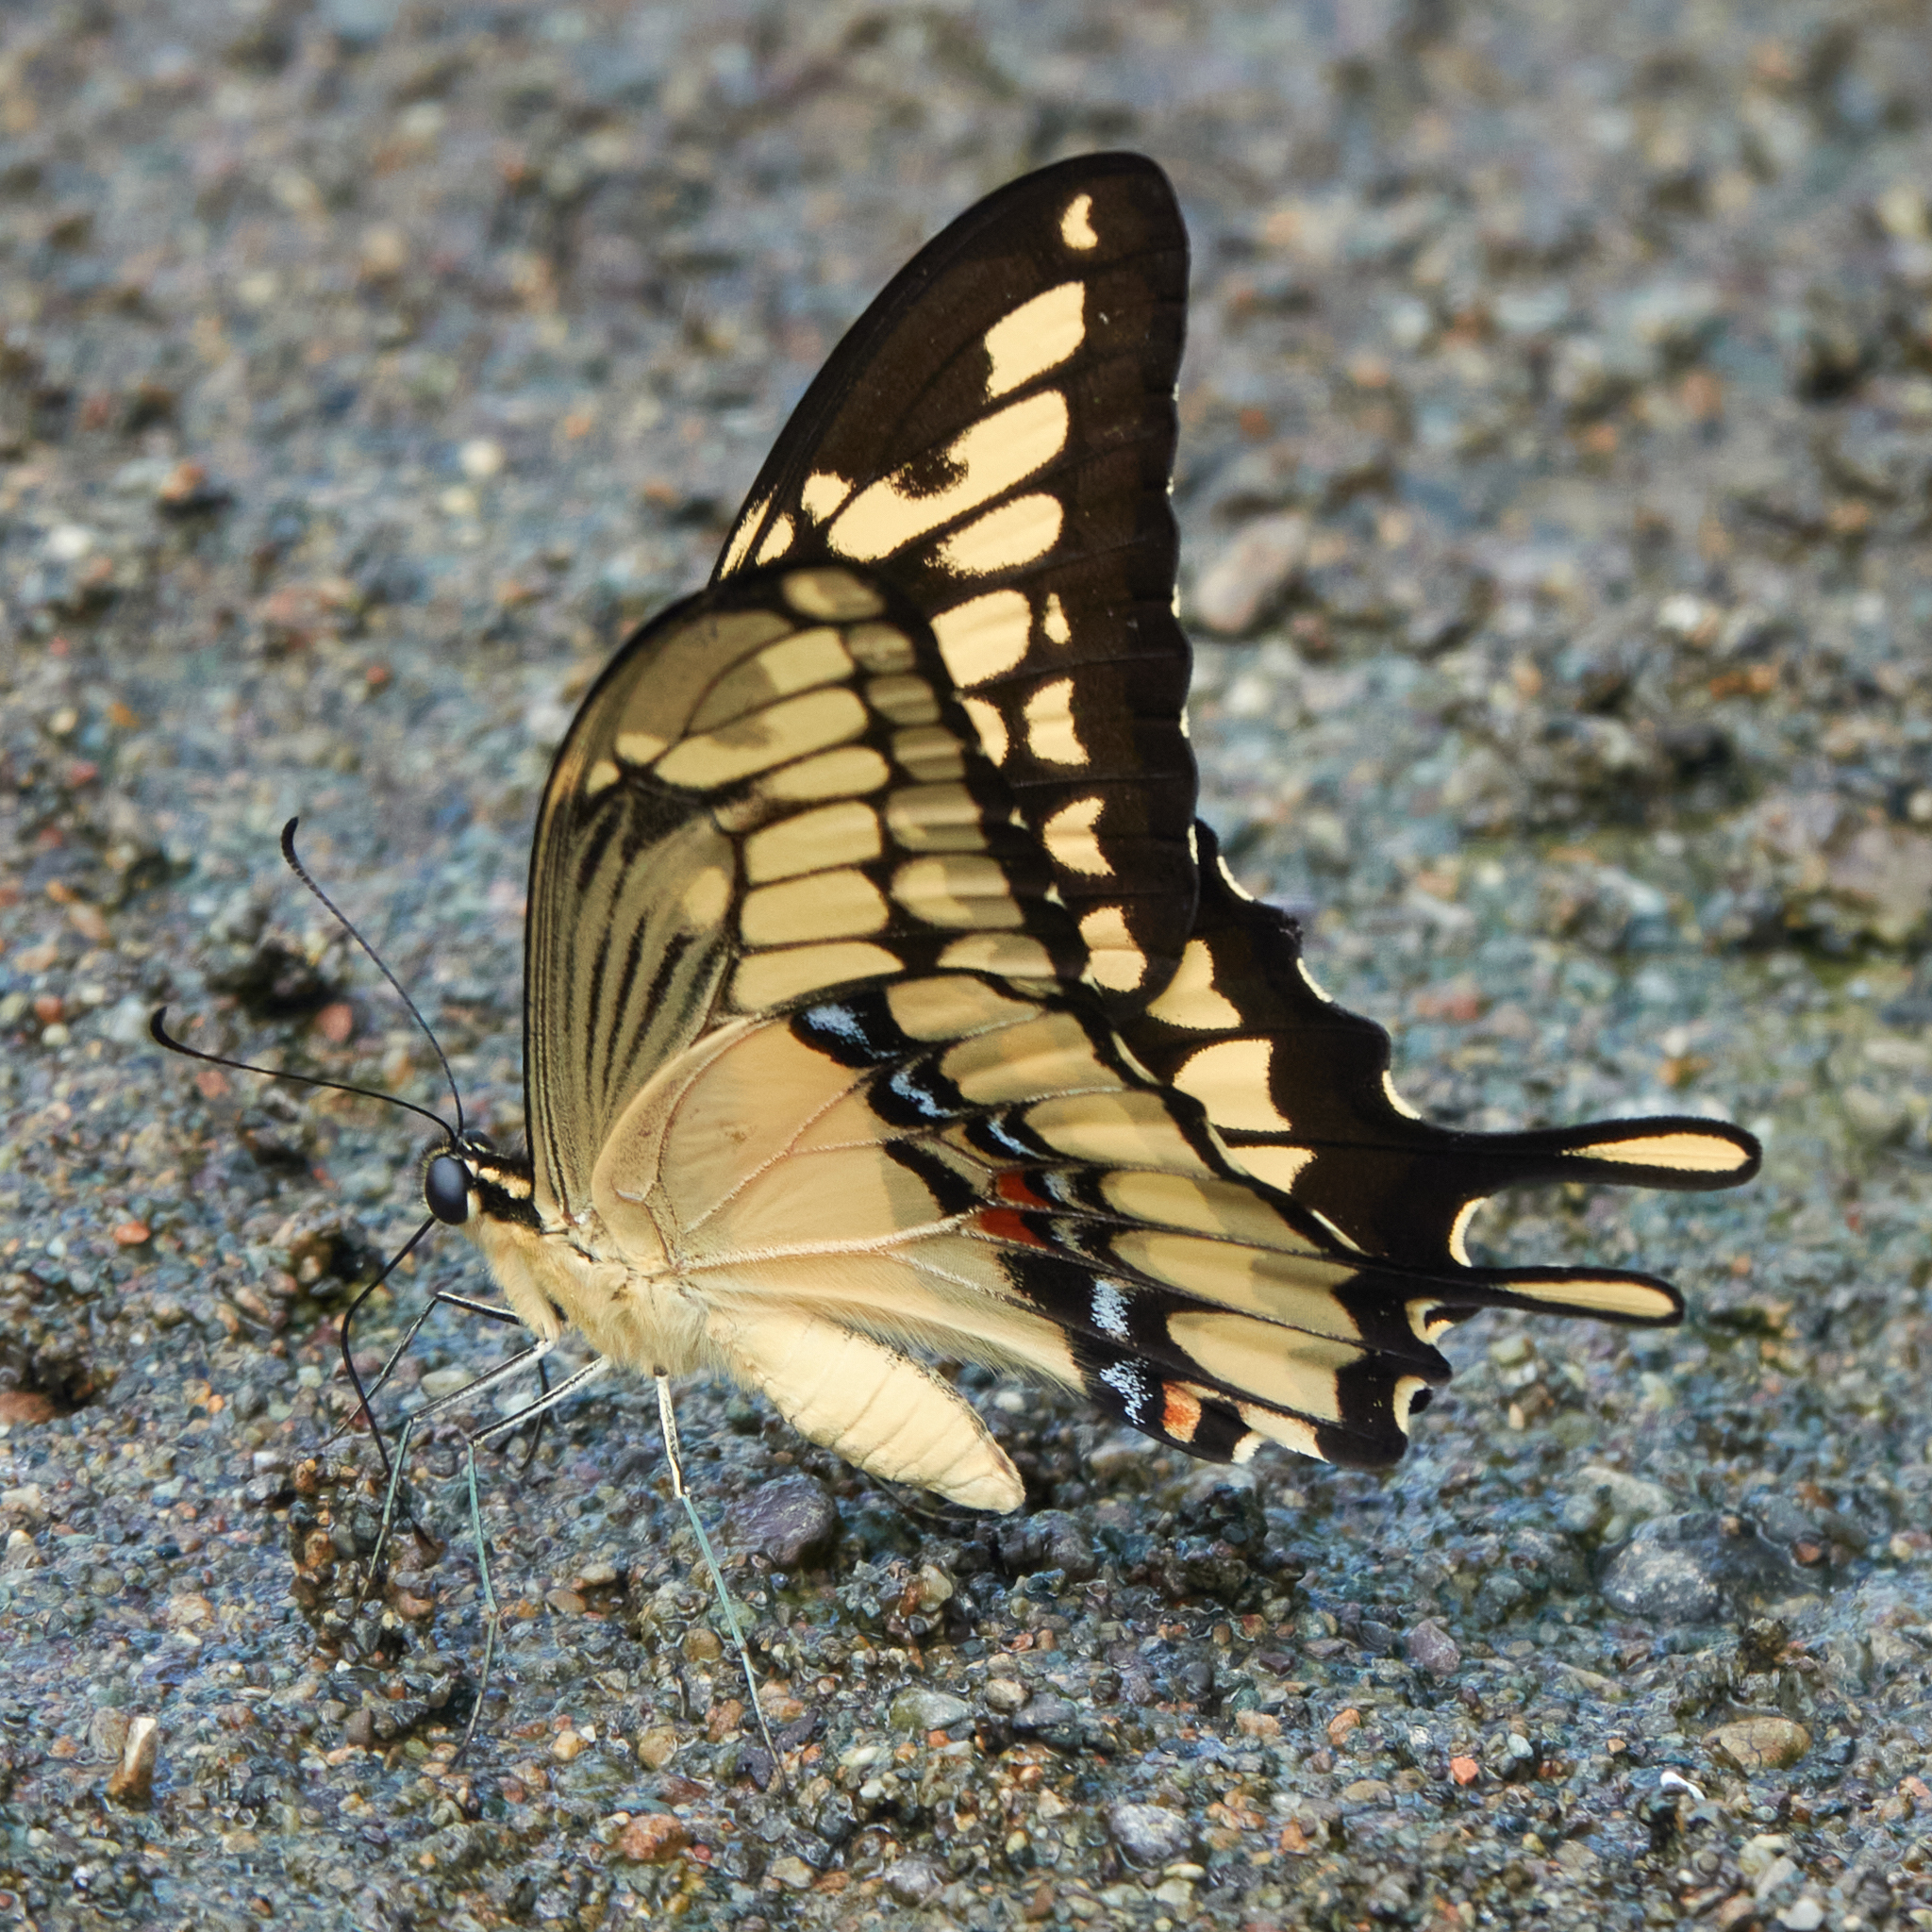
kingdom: Animalia
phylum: Arthropoda
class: Insecta
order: Lepidoptera
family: Papilionidae
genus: Papilio
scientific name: Papilio thoas
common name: King swallowtail
